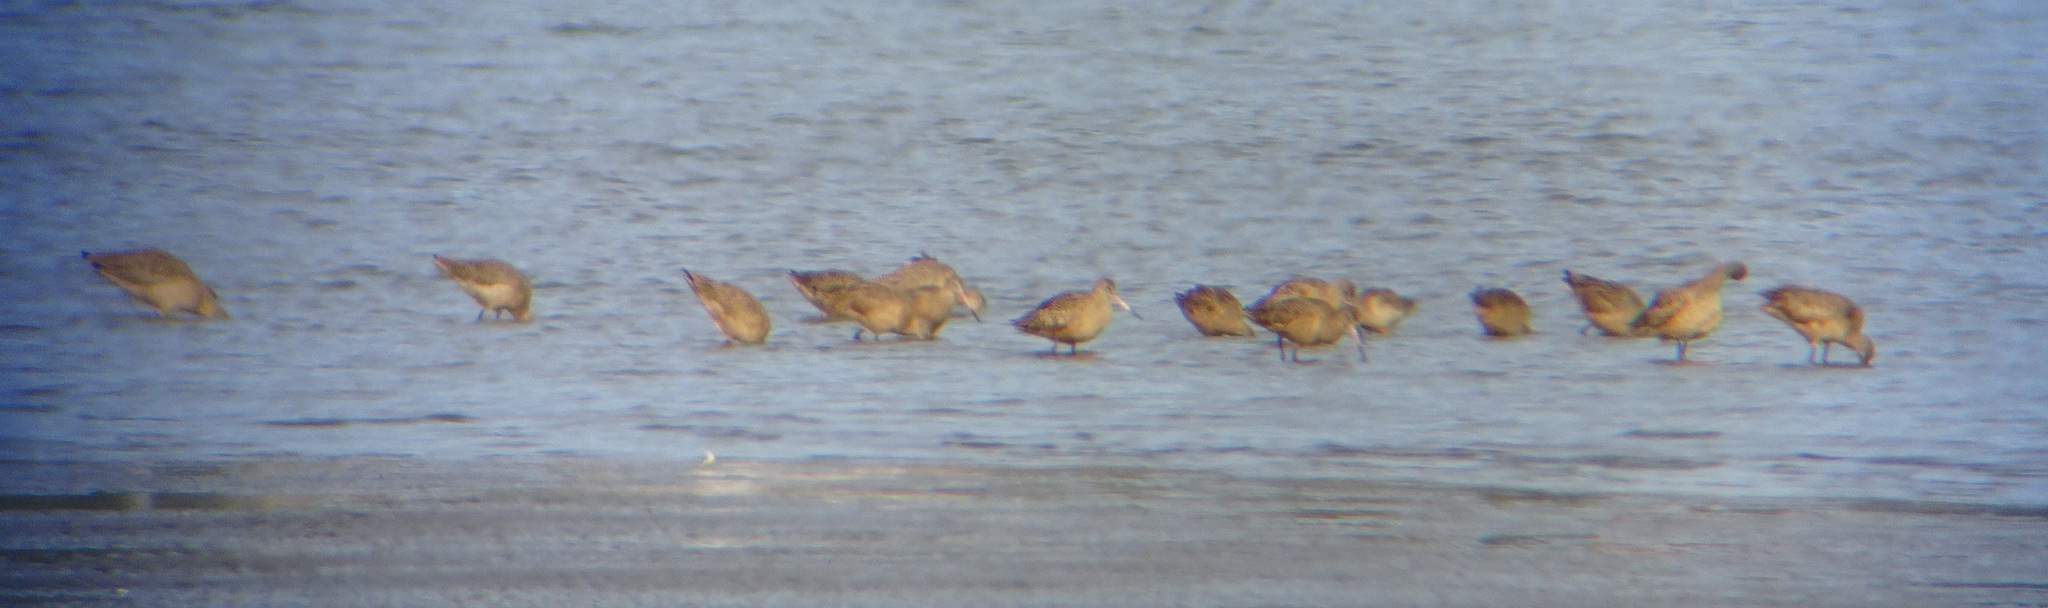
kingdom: Animalia
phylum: Chordata
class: Aves
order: Charadriiformes
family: Scolopacidae
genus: Limosa
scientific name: Limosa fedoa
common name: Marbled godwit
